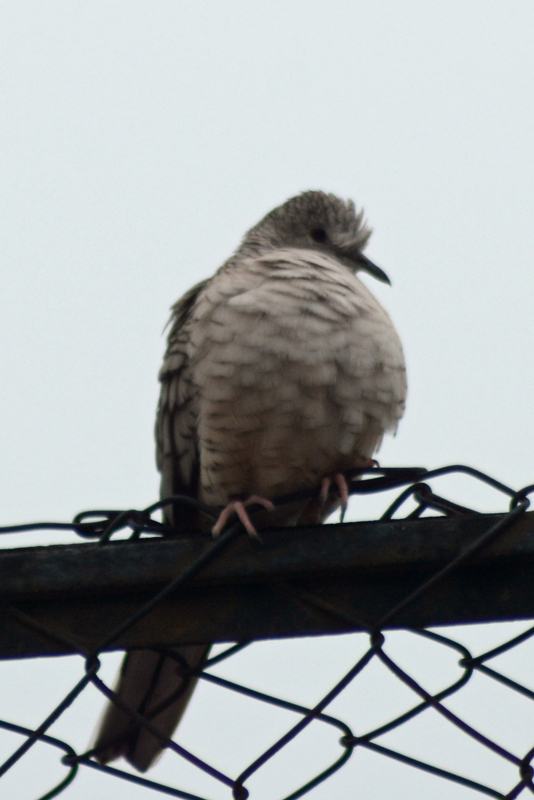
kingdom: Animalia
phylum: Chordata
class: Aves
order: Columbiformes
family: Columbidae
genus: Columbina
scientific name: Columbina inca
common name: Inca dove
